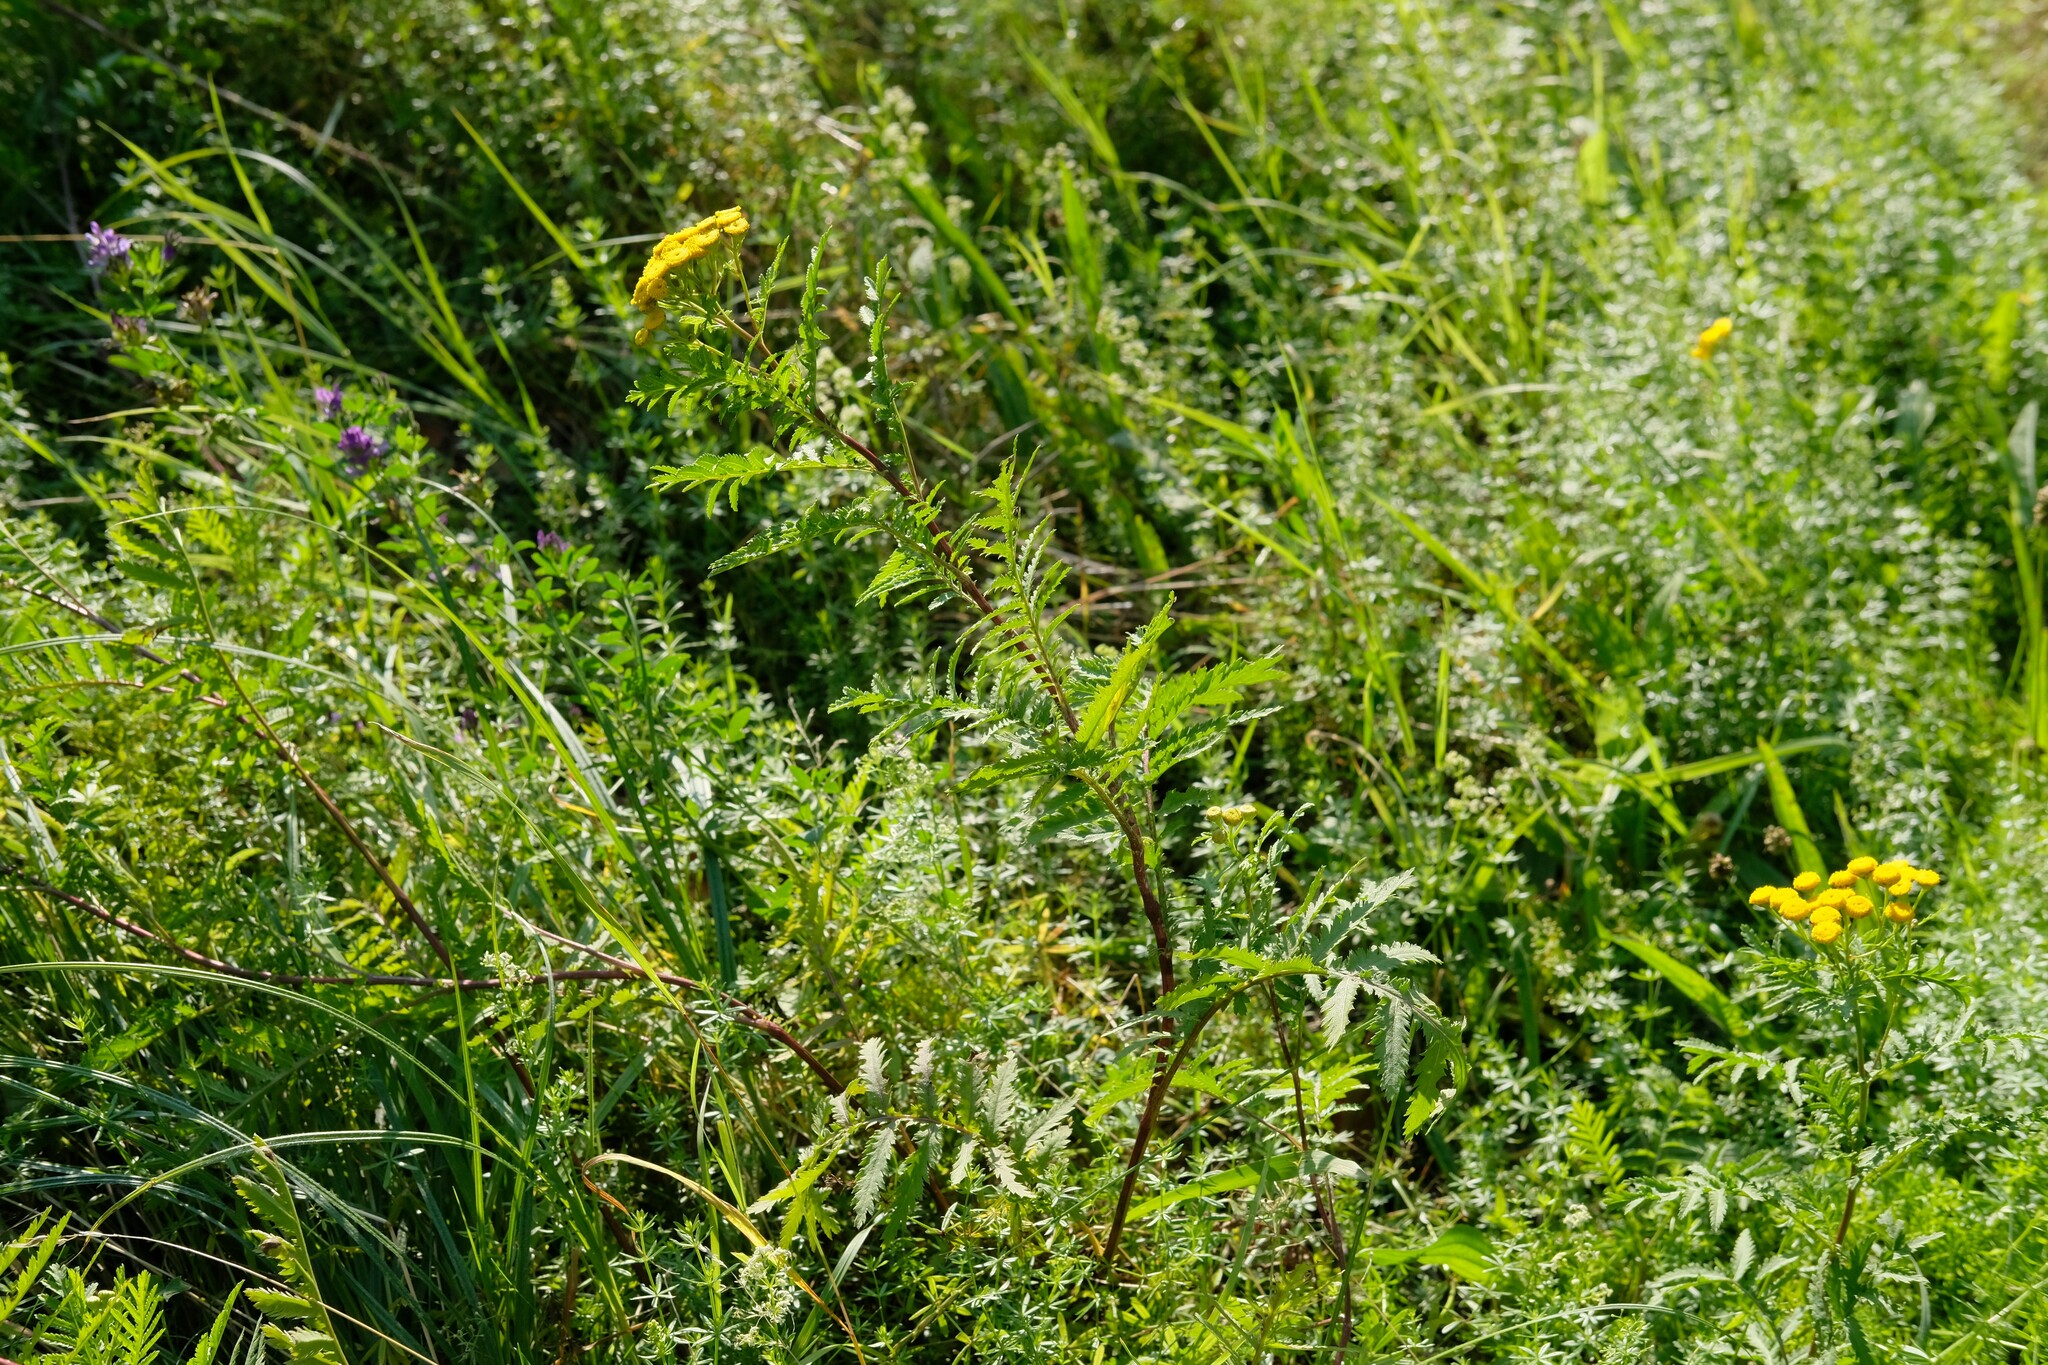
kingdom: Plantae
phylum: Tracheophyta
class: Magnoliopsida
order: Asterales
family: Asteraceae
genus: Tanacetum
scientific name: Tanacetum vulgare
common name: Common tansy
